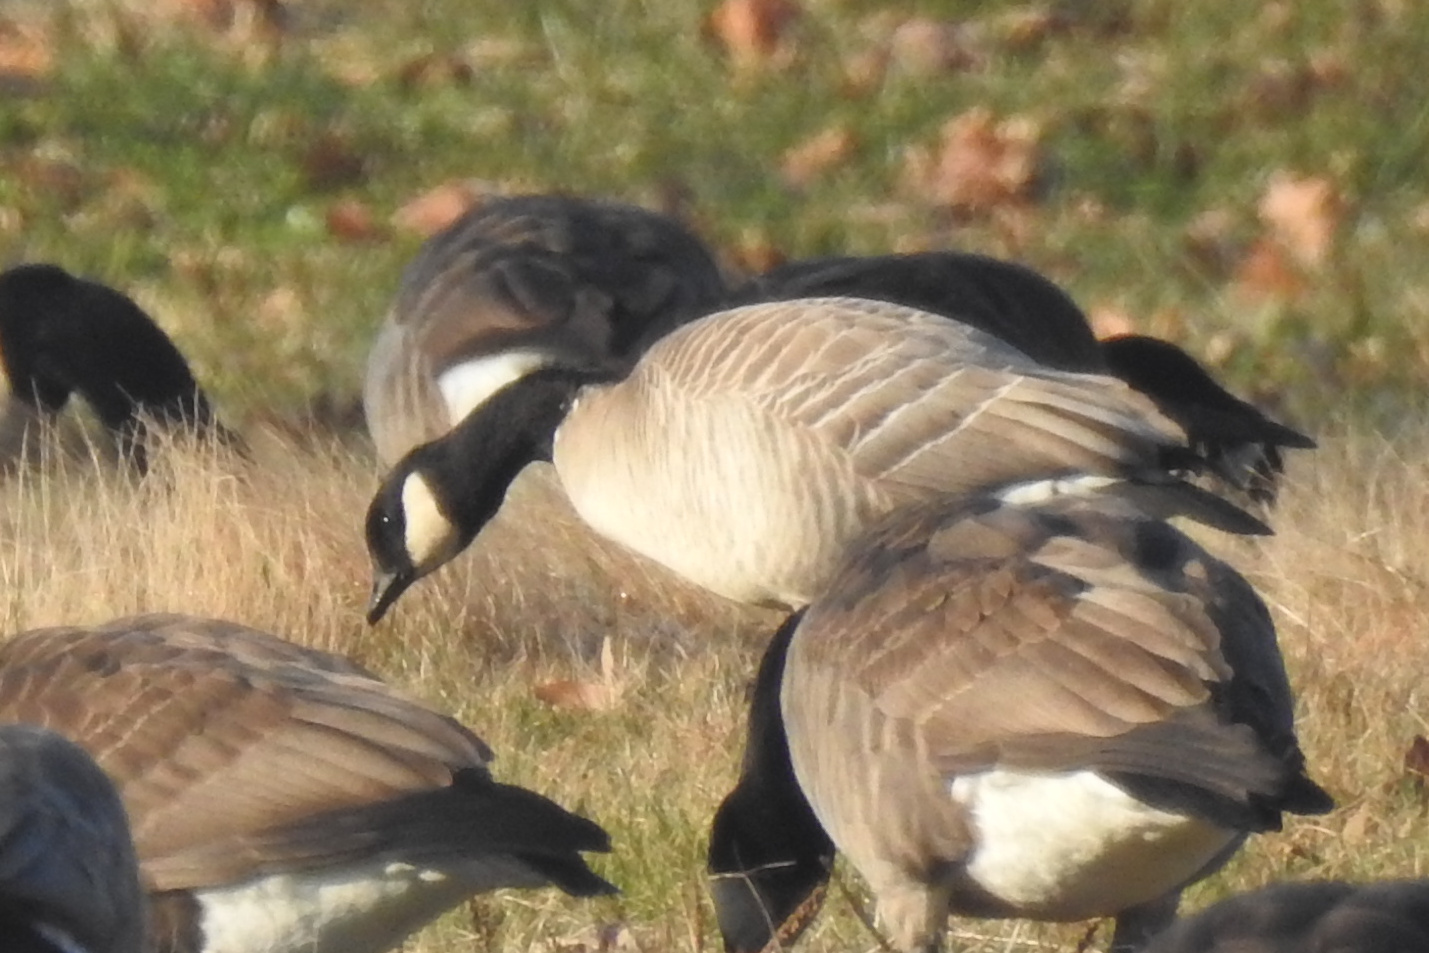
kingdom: Animalia
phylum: Chordata
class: Aves
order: Anseriformes
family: Anatidae
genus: Branta
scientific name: Branta hutchinsii
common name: Cackling goose
